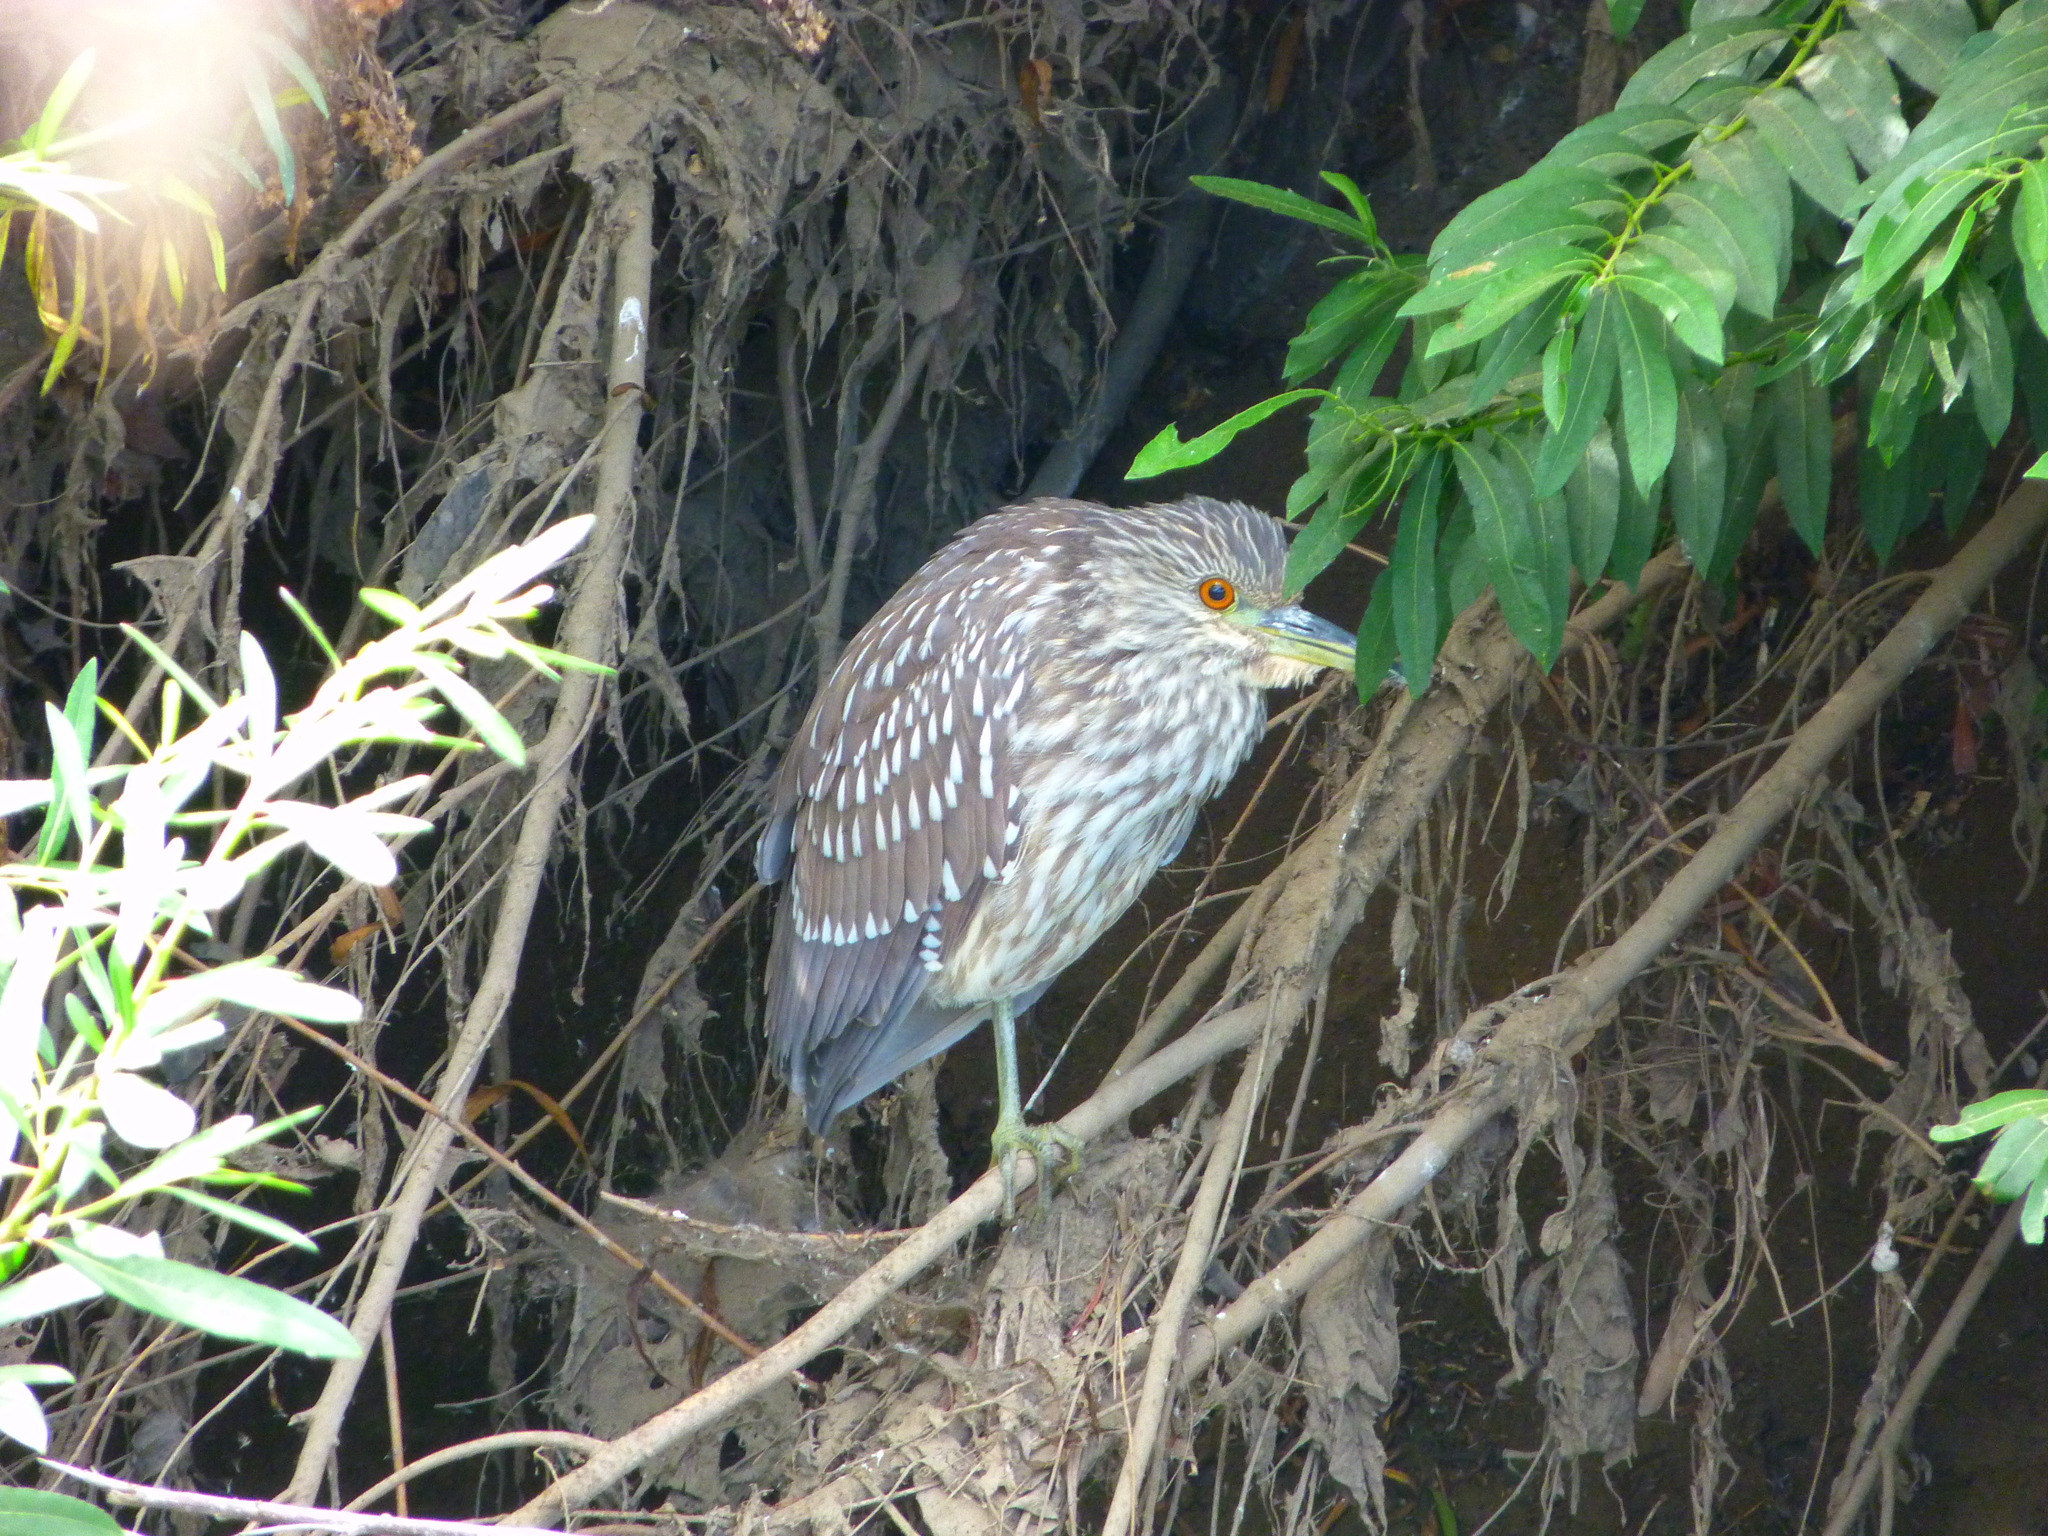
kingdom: Animalia
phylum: Chordata
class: Aves
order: Pelecaniformes
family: Ardeidae
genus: Nycticorax
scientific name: Nycticorax nycticorax
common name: Black-crowned night heron
